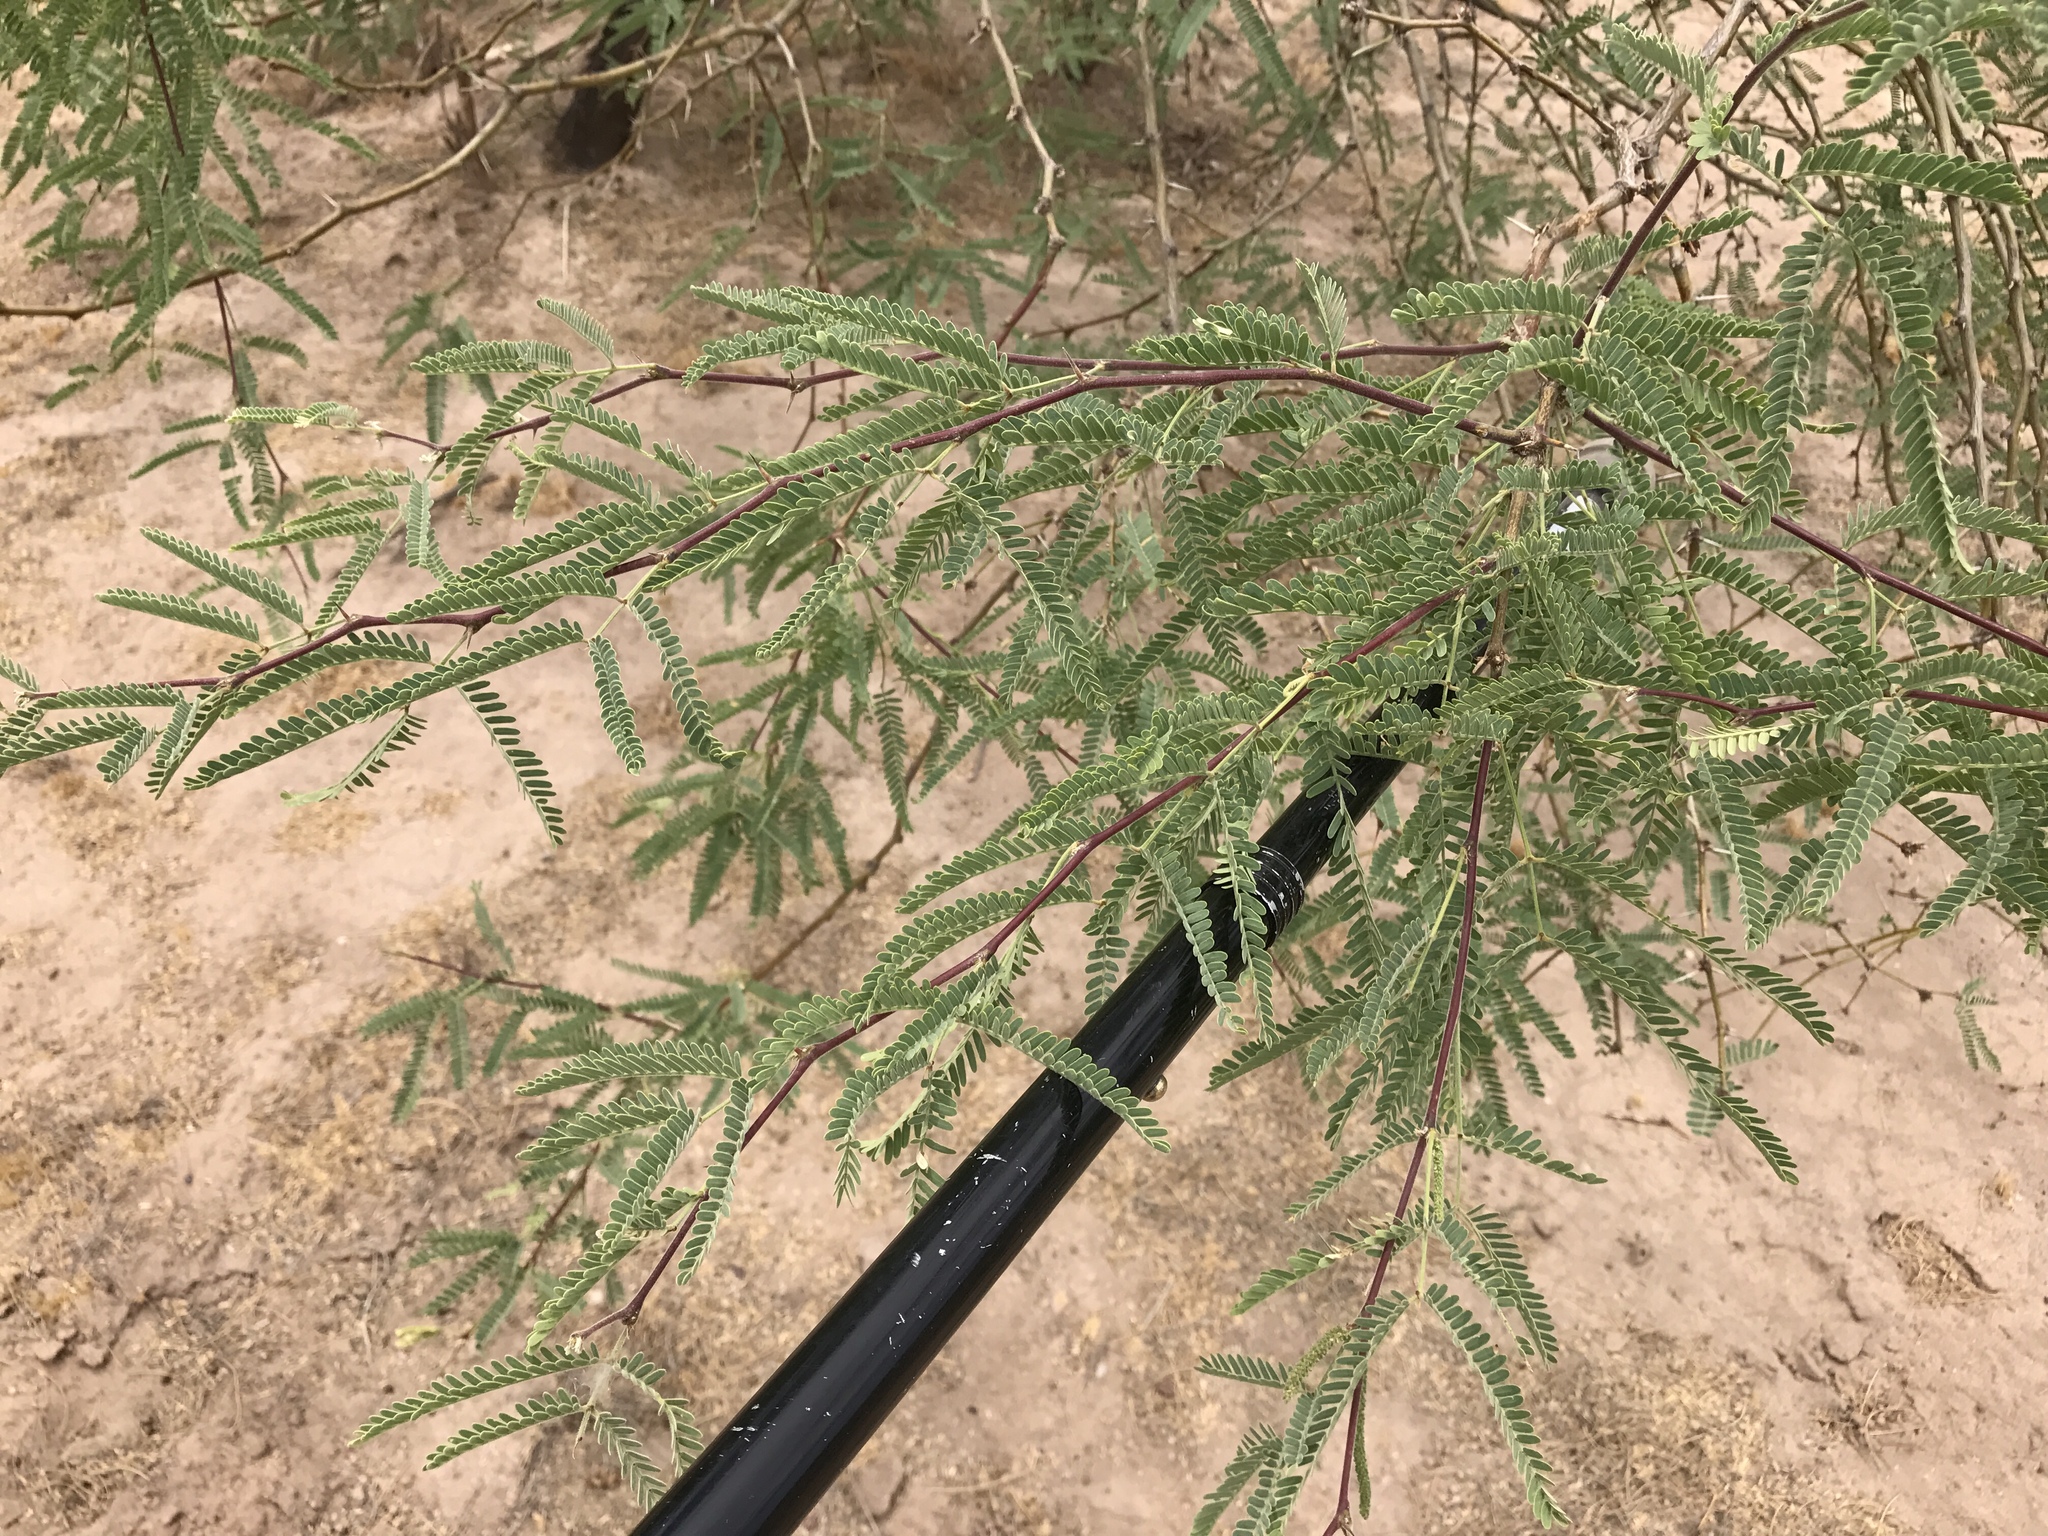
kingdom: Plantae
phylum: Tracheophyta
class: Magnoliopsida
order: Fabales
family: Fabaceae
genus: Prosopis
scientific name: Prosopis velutina
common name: Velvet mesquite
